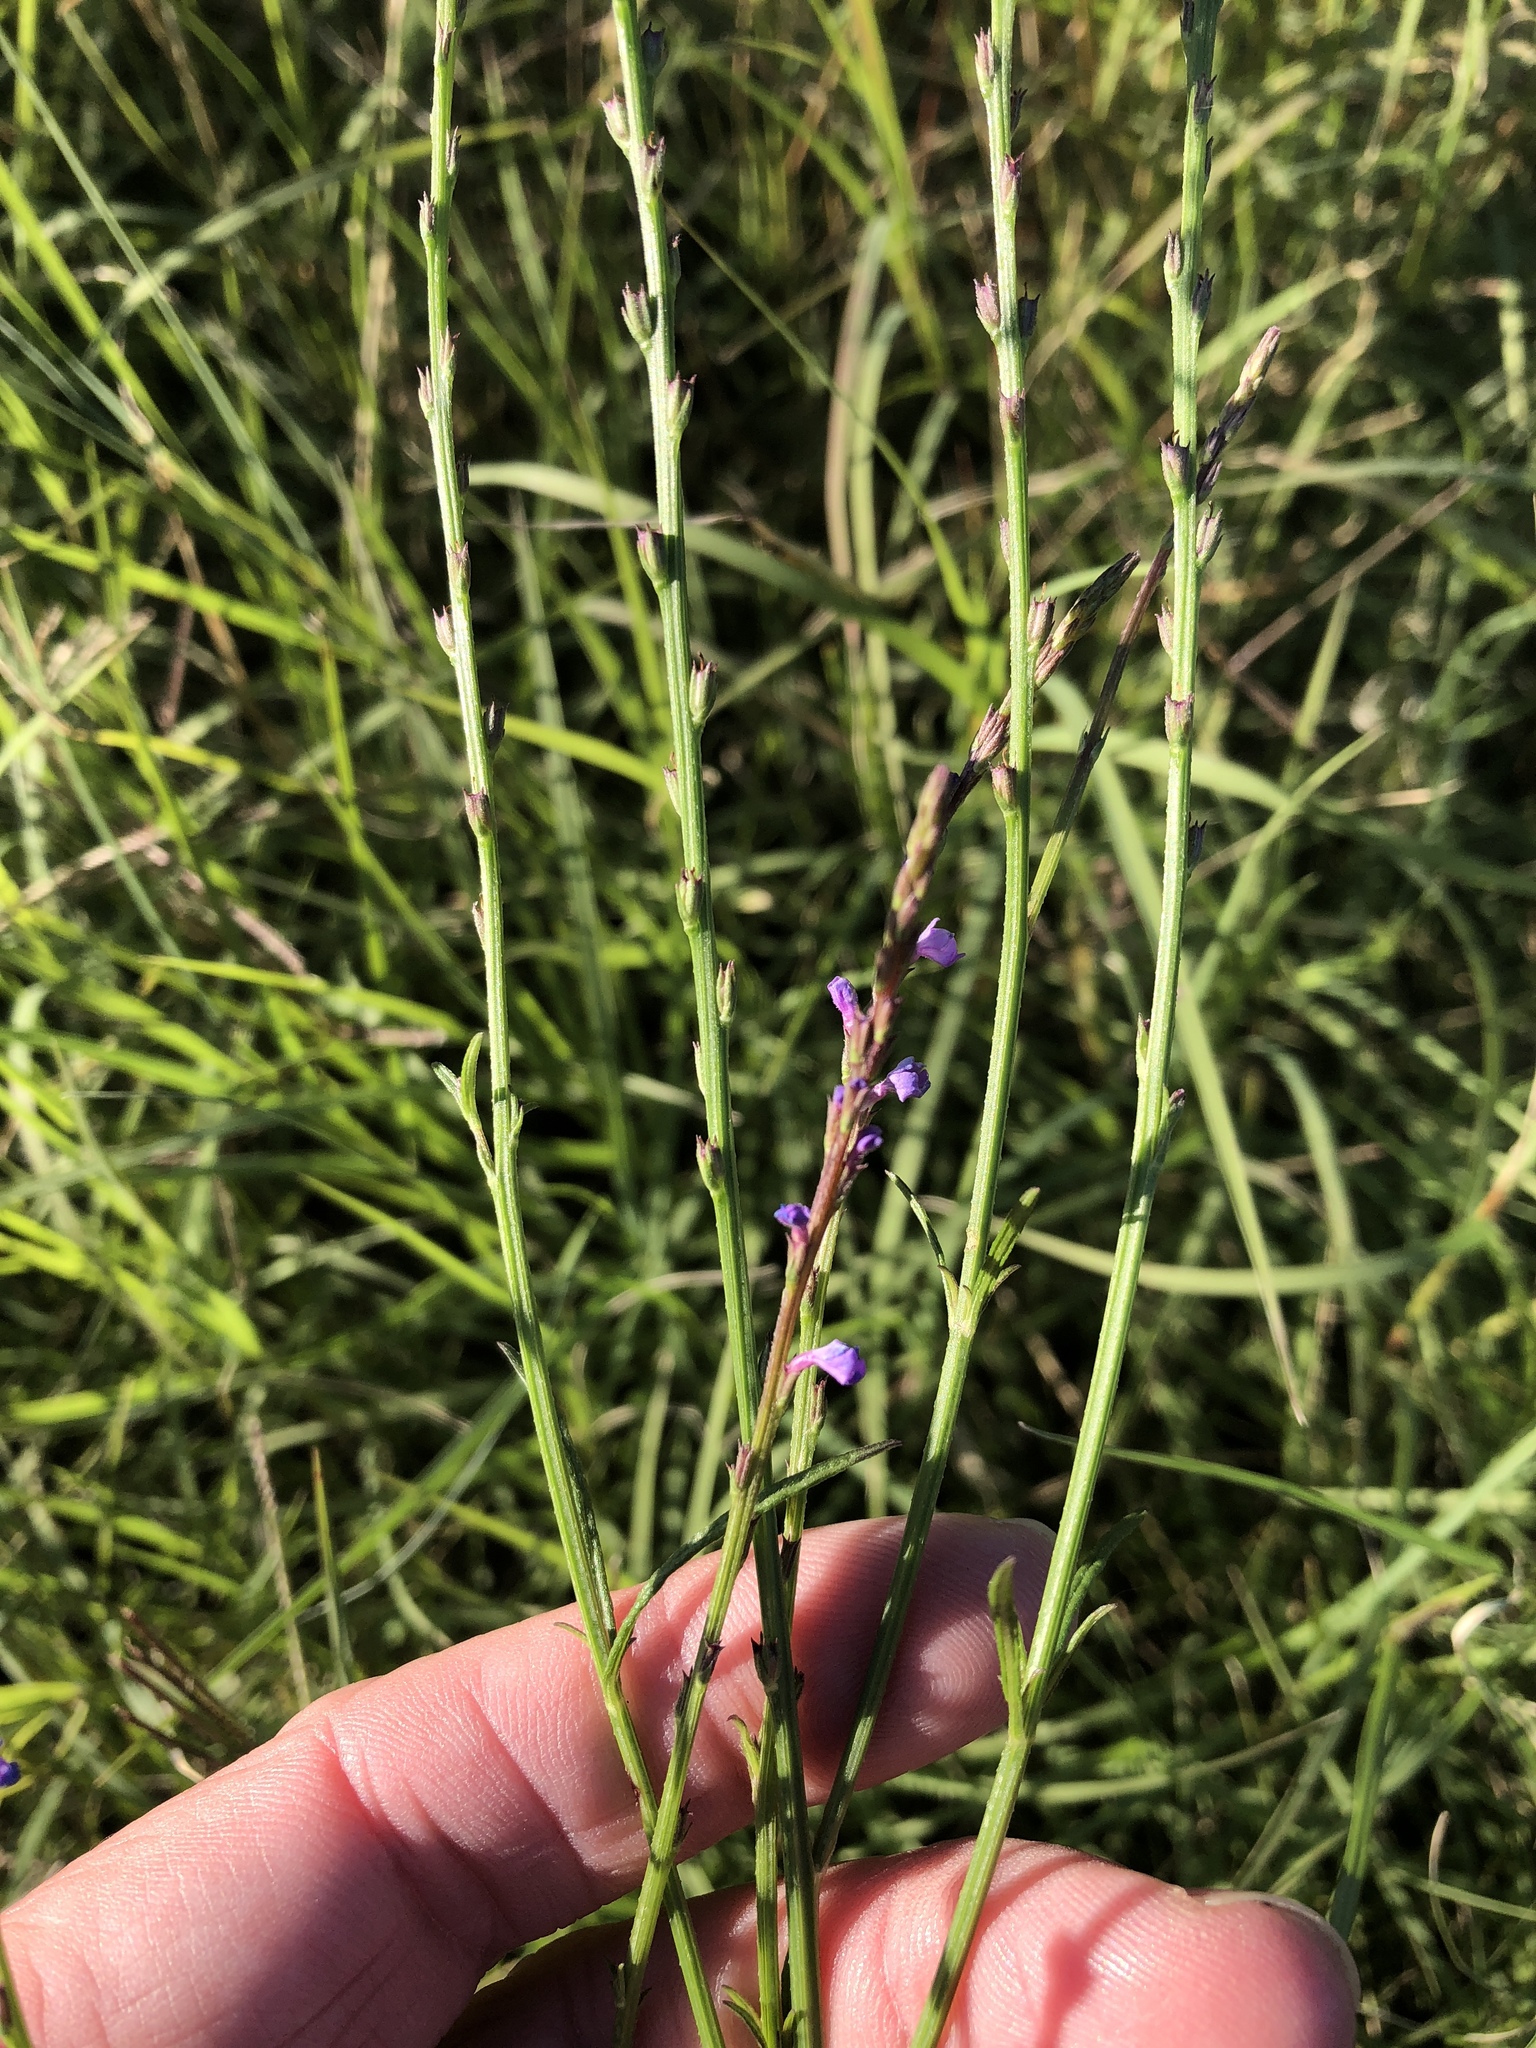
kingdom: Plantae
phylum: Tracheophyta
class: Magnoliopsida
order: Lamiales
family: Verbenaceae
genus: Verbena
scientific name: Verbena halei
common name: Texas vervain
